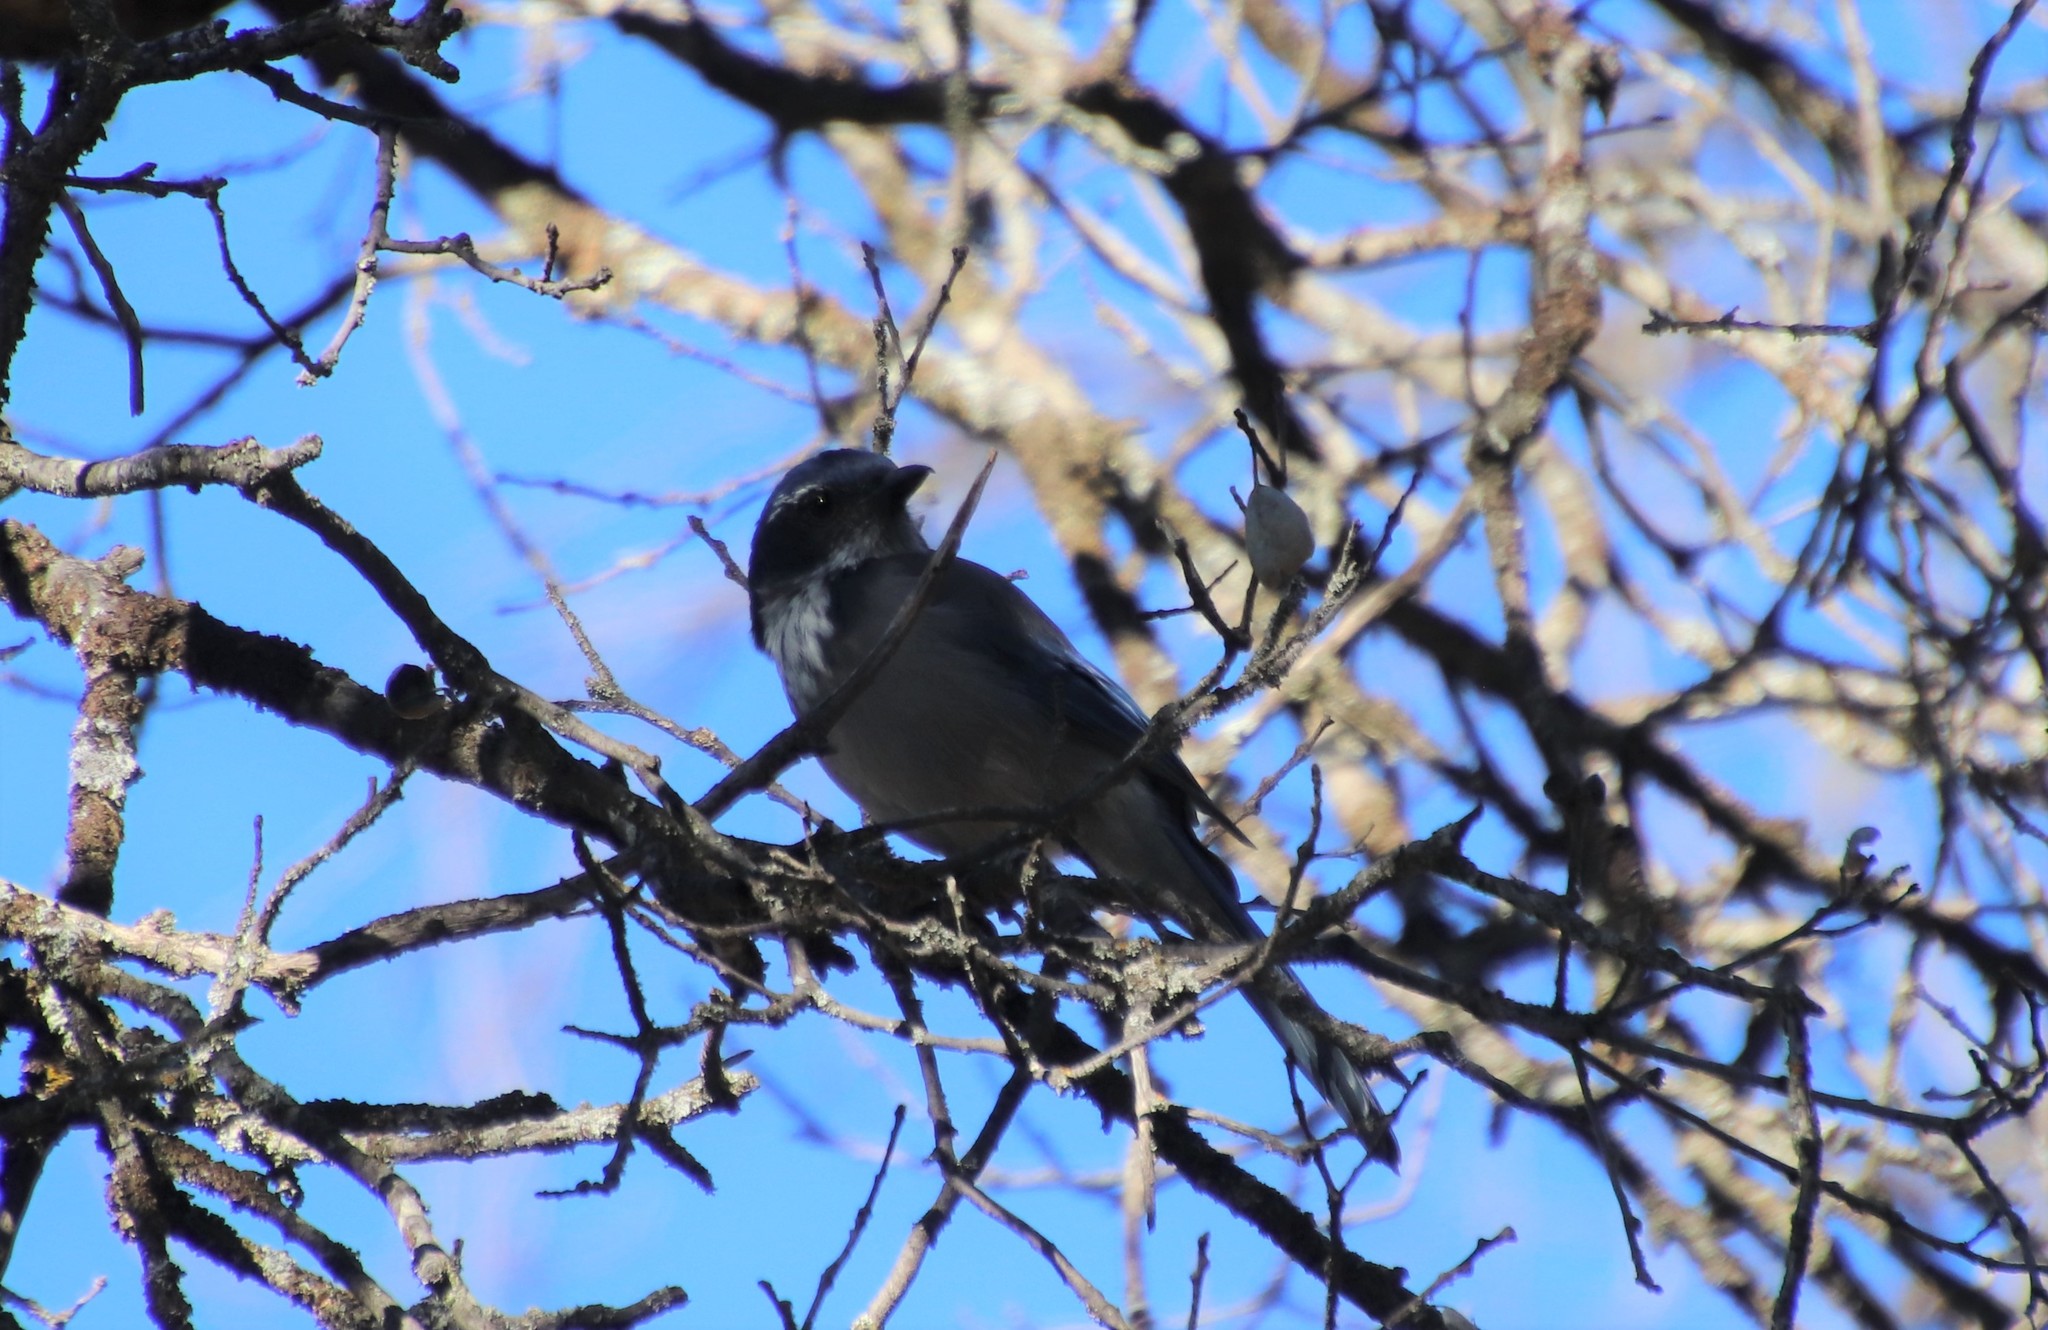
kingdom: Animalia
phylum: Chordata
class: Aves
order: Passeriformes
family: Corvidae
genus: Aphelocoma
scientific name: Aphelocoma californica
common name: California scrub-jay
